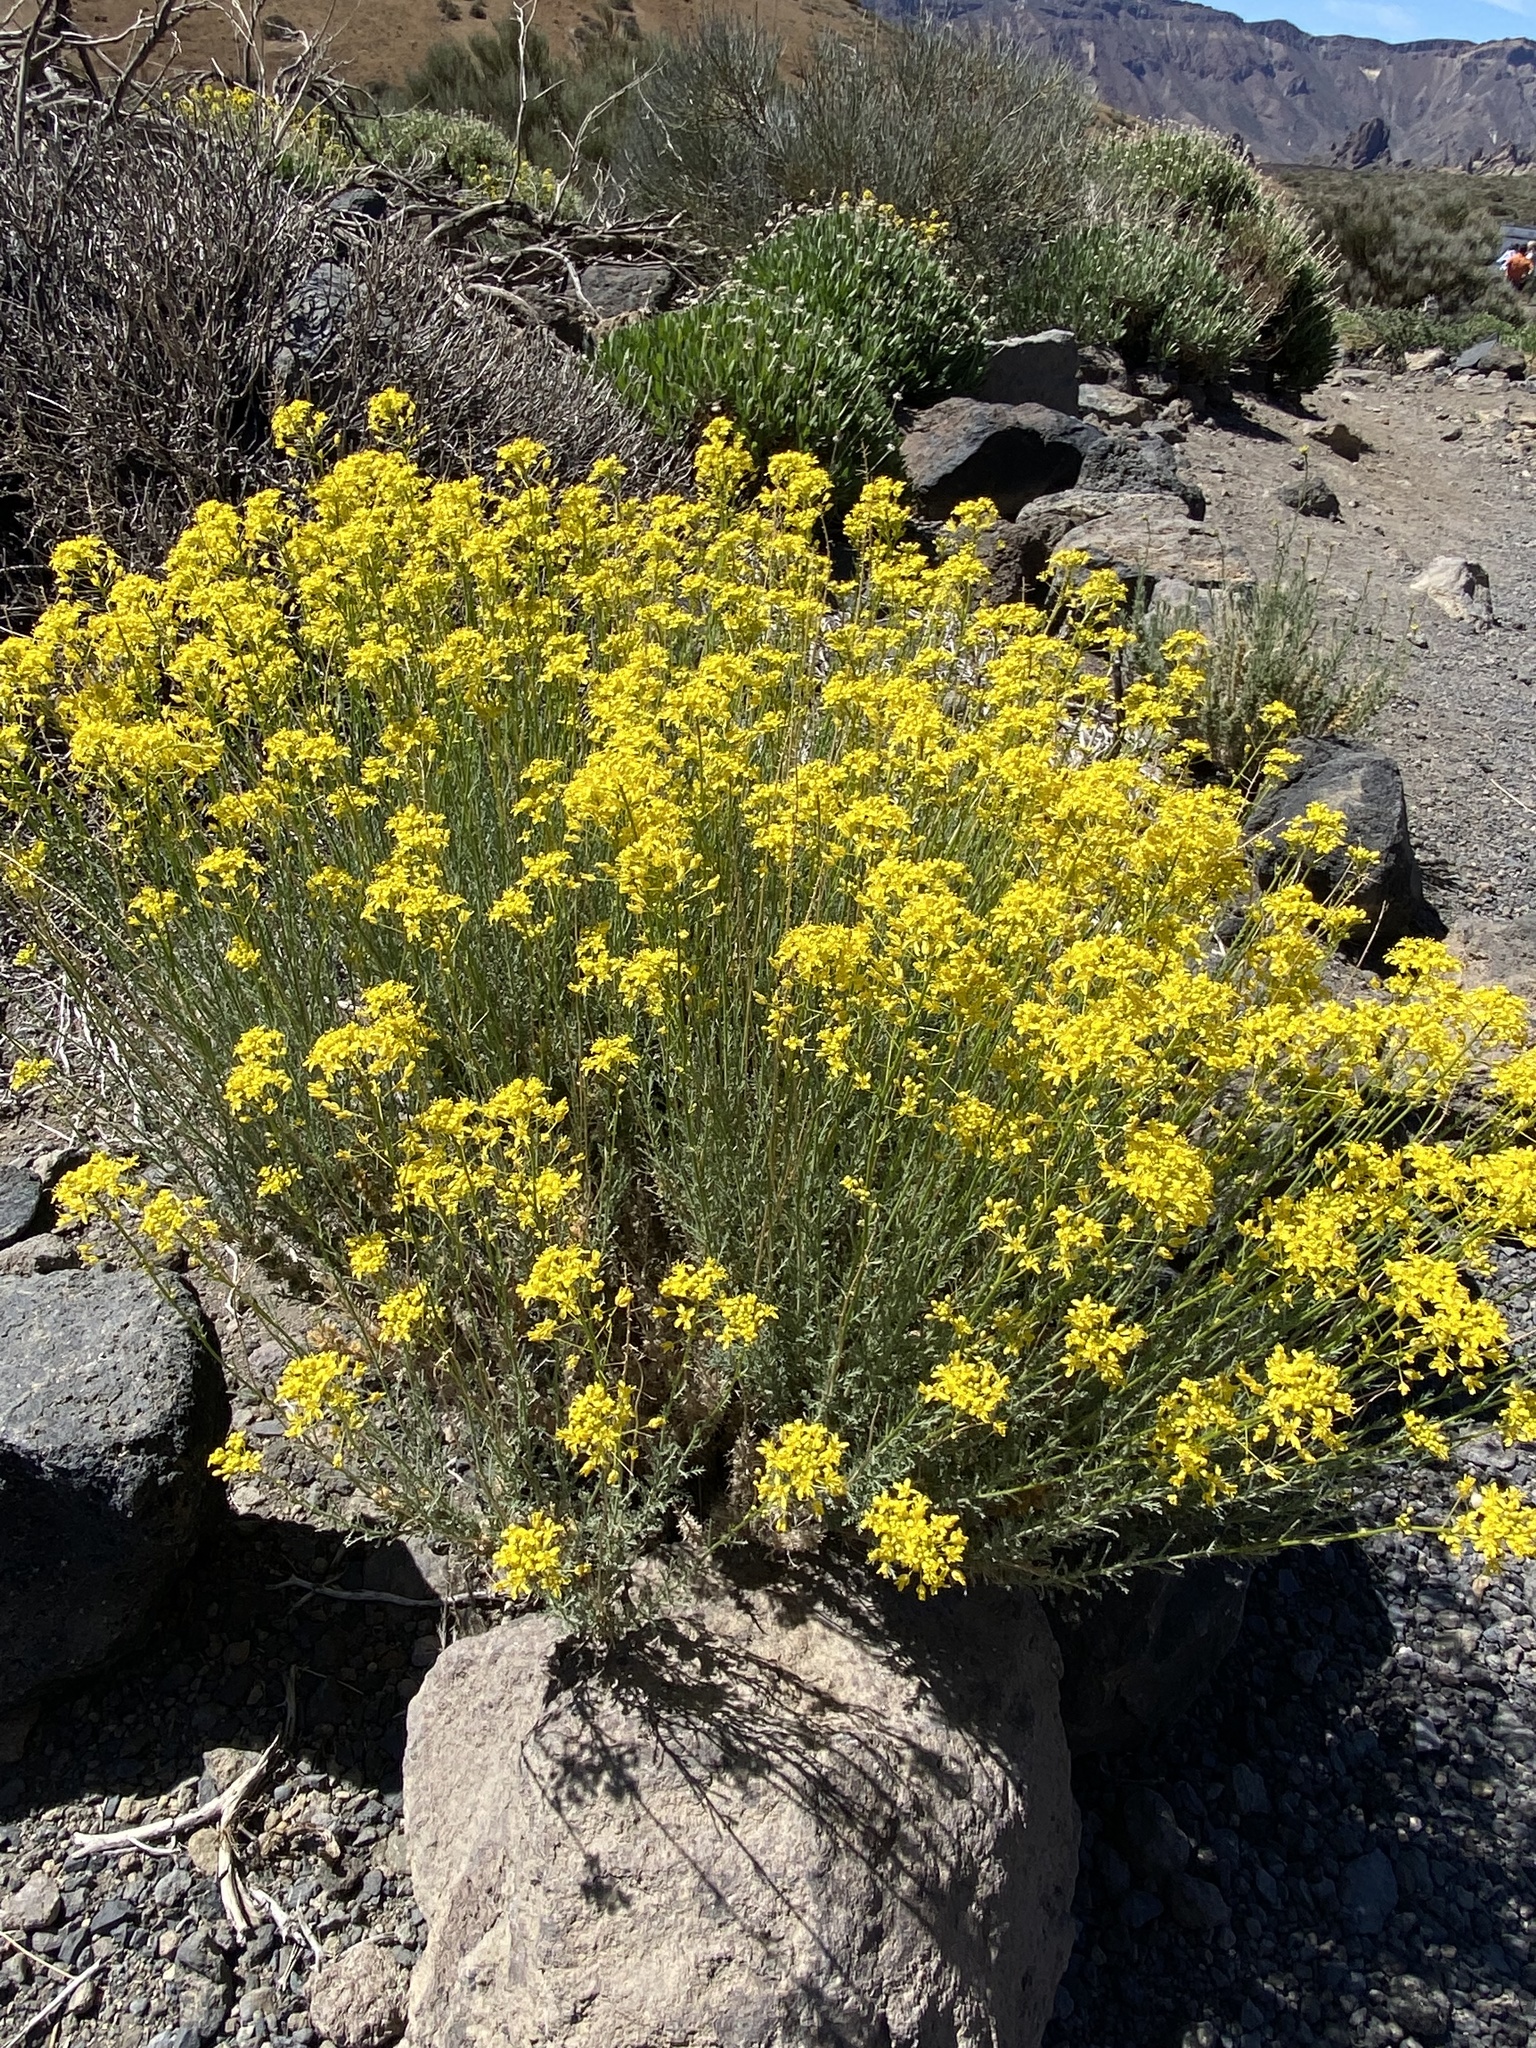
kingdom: Plantae
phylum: Tracheophyta
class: Magnoliopsida
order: Brassicales
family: Brassicaceae
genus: Descurainia
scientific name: Descurainia bourgaeana
